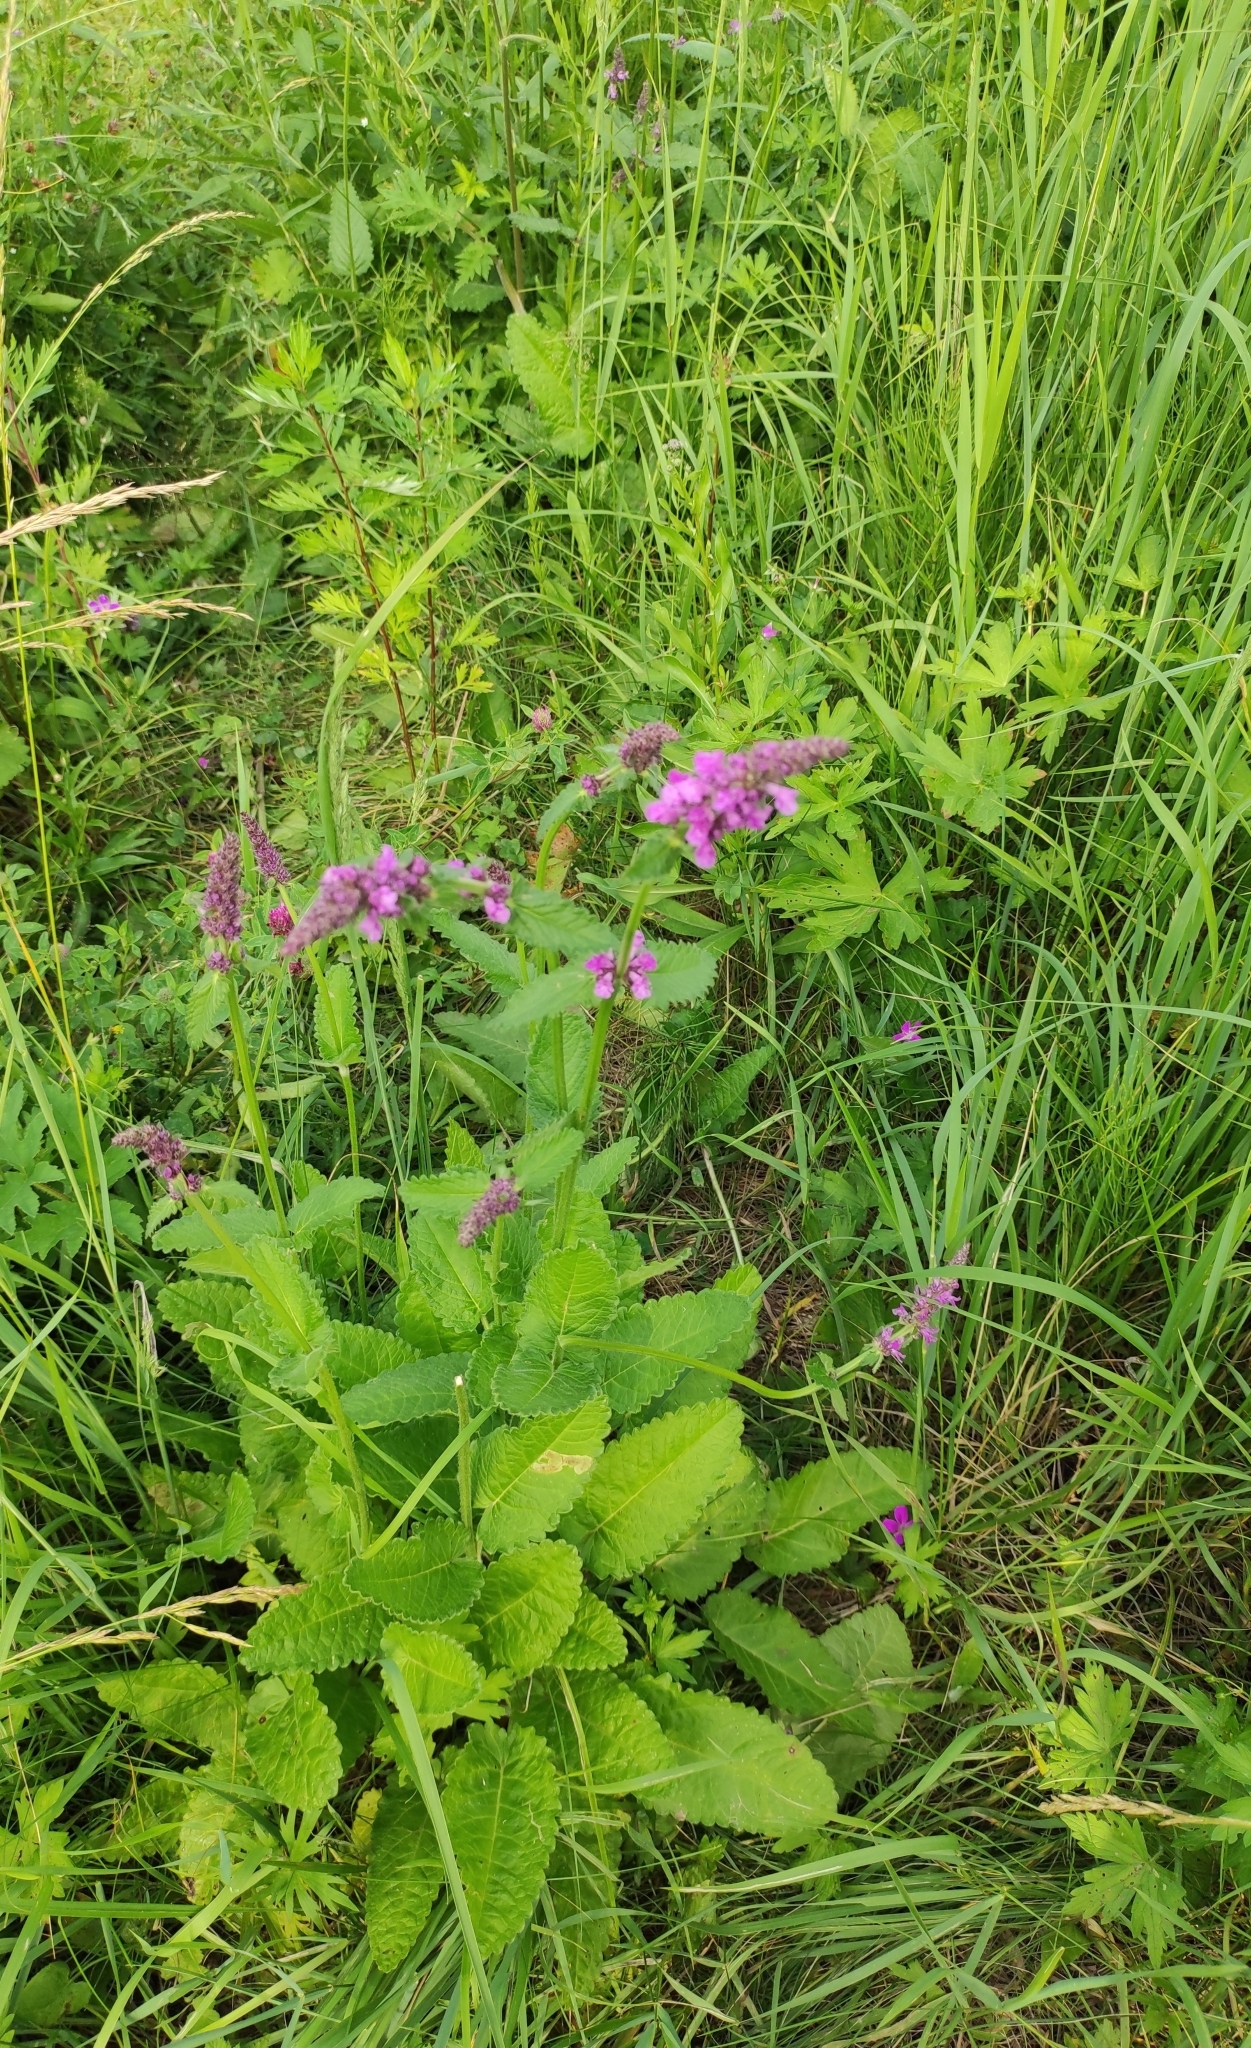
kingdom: Plantae
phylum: Tracheophyta
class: Magnoliopsida
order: Lamiales
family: Lamiaceae
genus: Betonica
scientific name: Betonica officinalis
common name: Bishop's-wort
